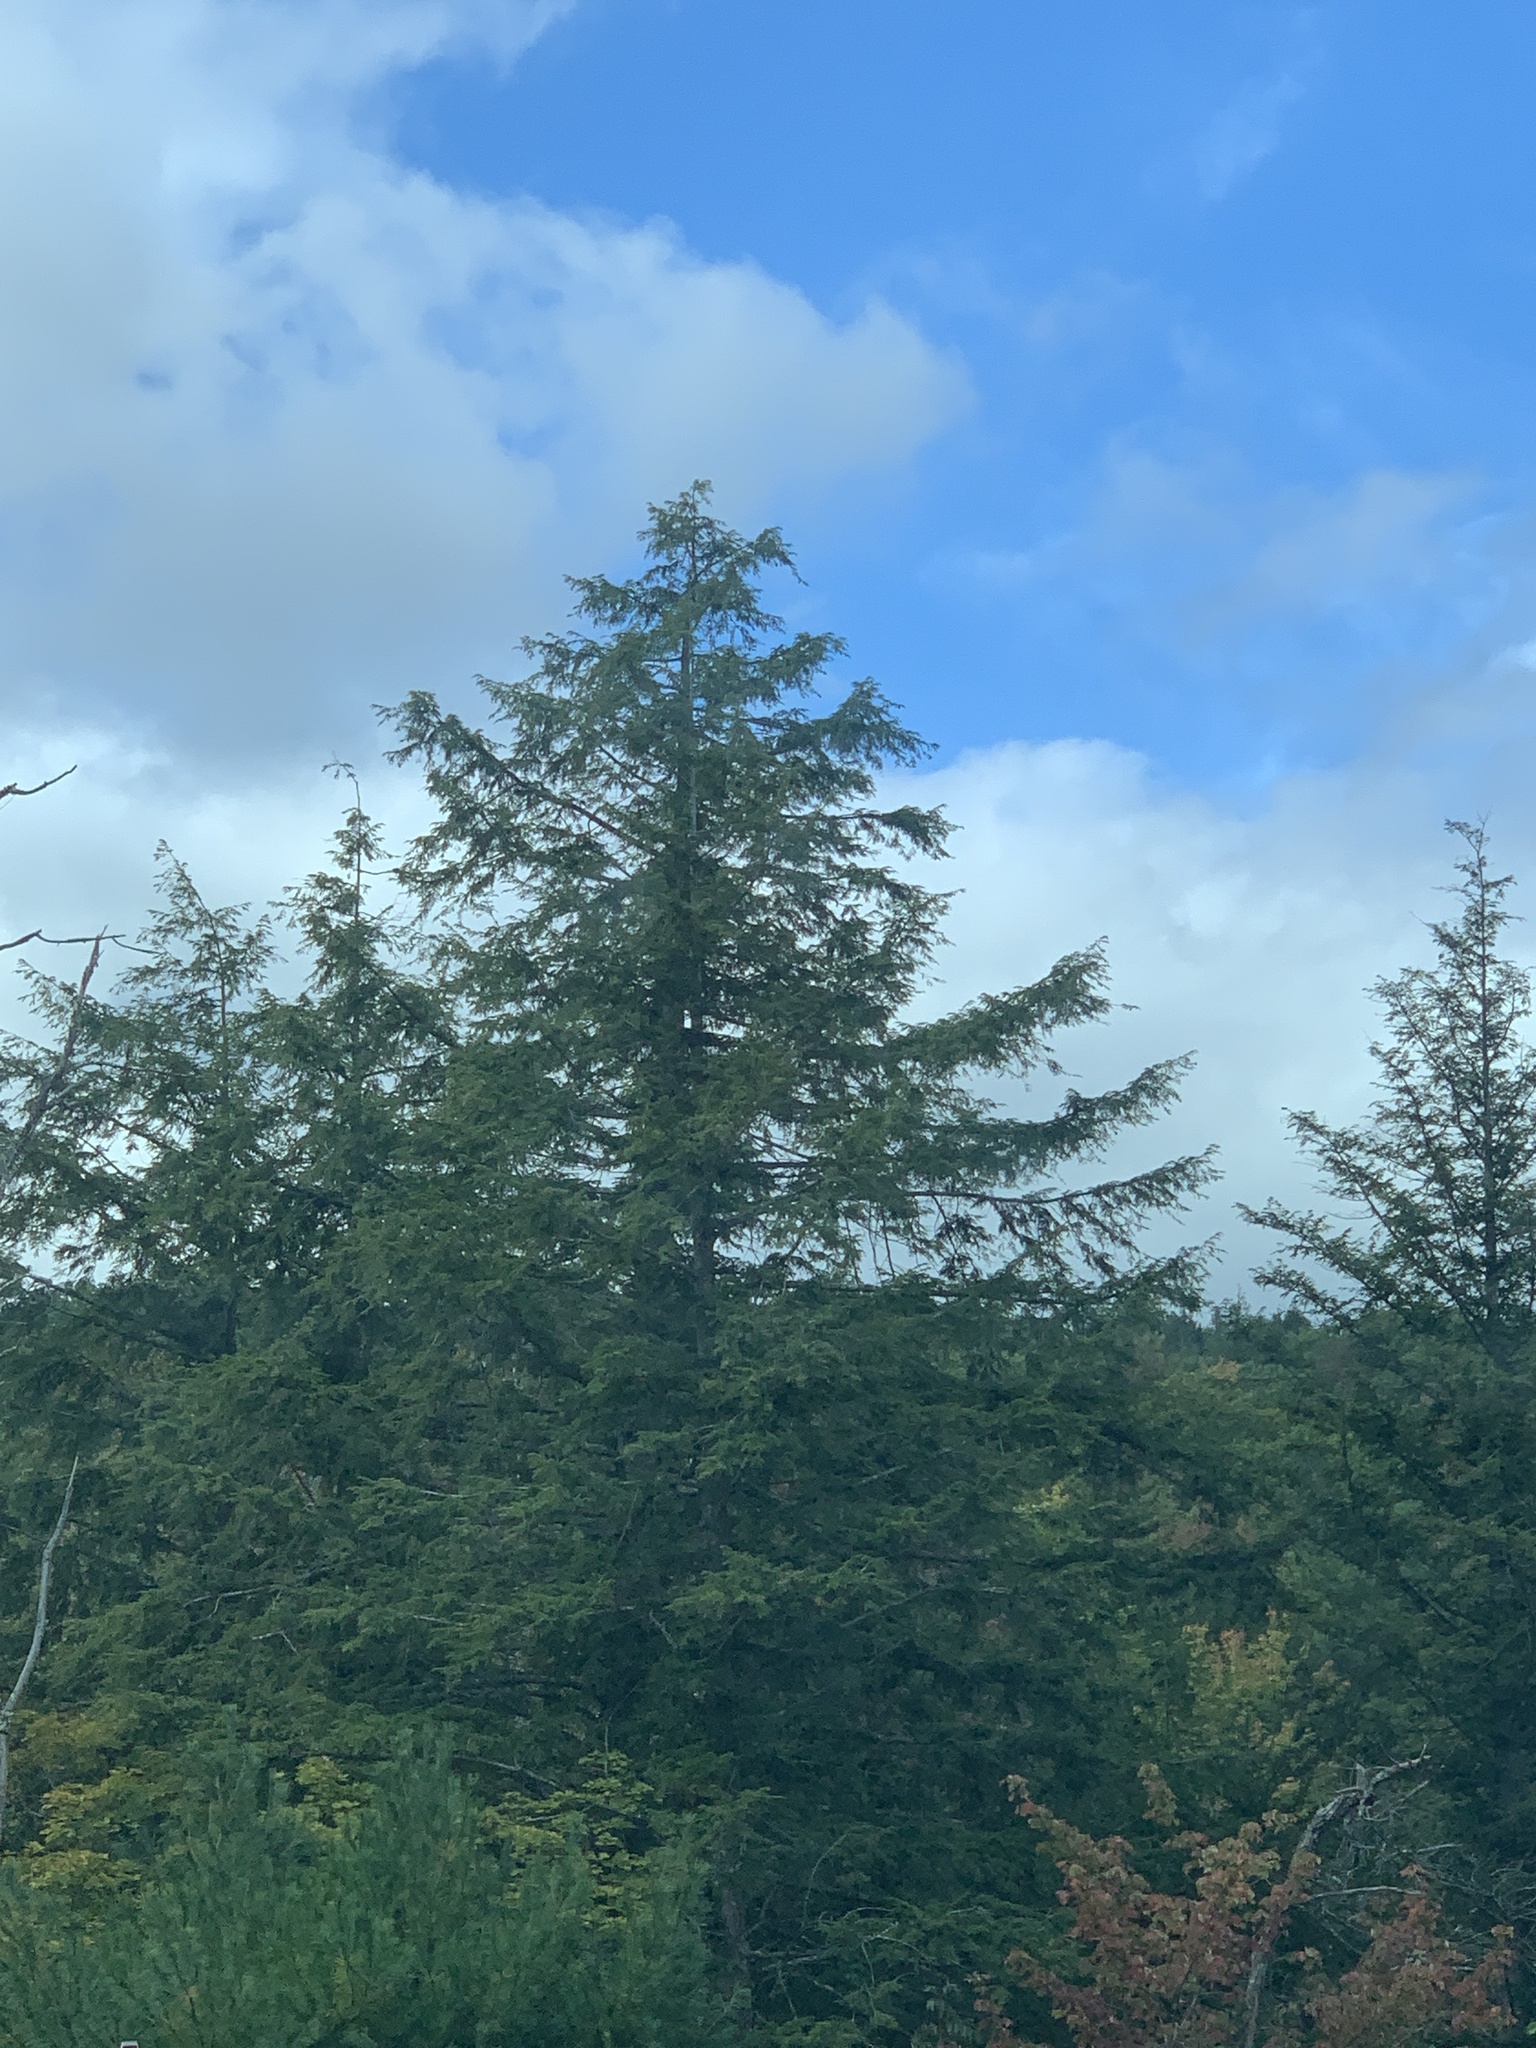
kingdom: Plantae
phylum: Tracheophyta
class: Pinopsida
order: Pinales
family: Pinaceae
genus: Tsuga
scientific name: Tsuga canadensis
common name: Eastern hemlock
